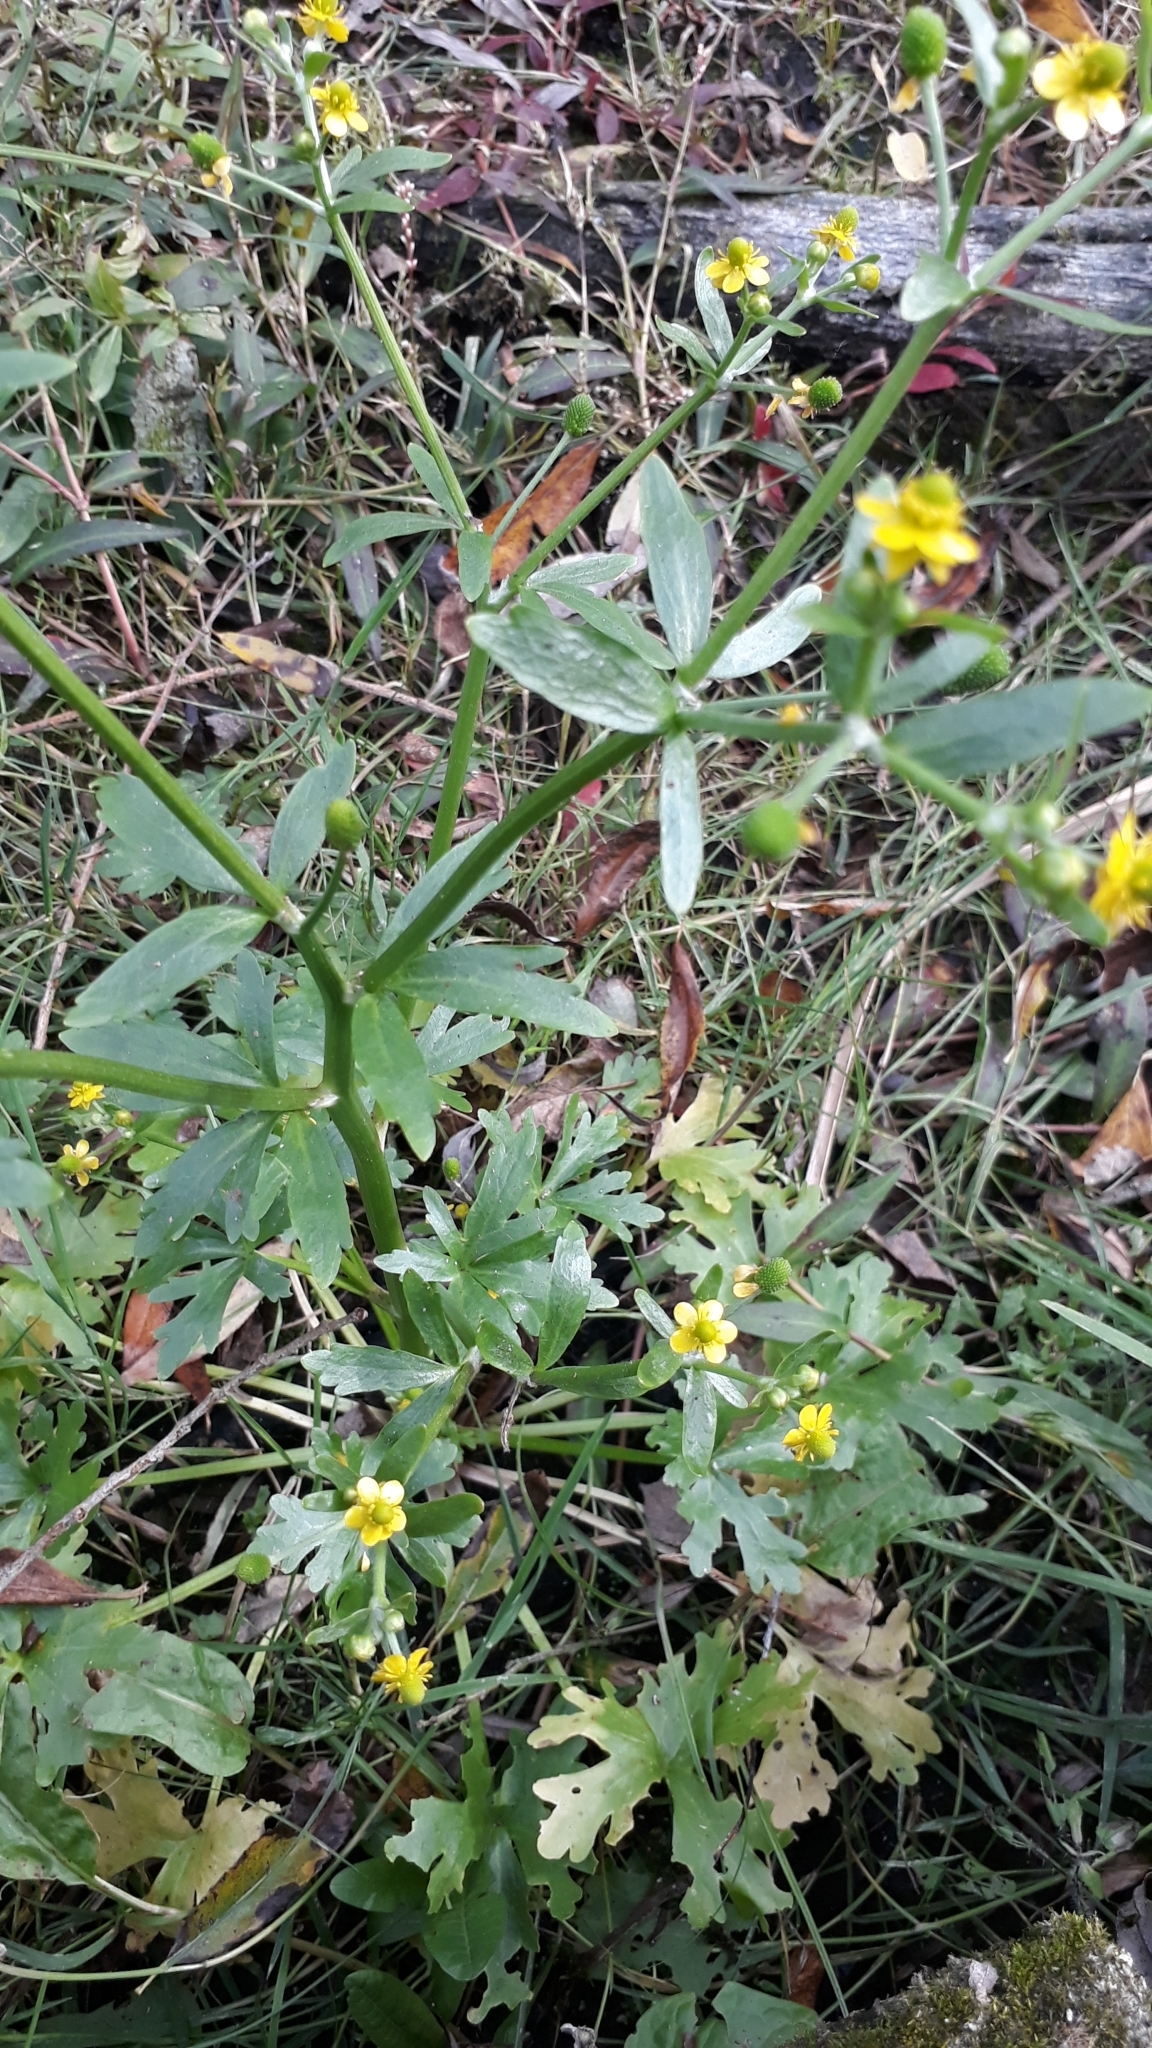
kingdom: Plantae
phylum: Tracheophyta
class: Magnoliopsida
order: Ranunculales
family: Ranunculaceae
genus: Ranunculus
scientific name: Ranunculus sceleratus
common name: Celery-leaved buttercup
